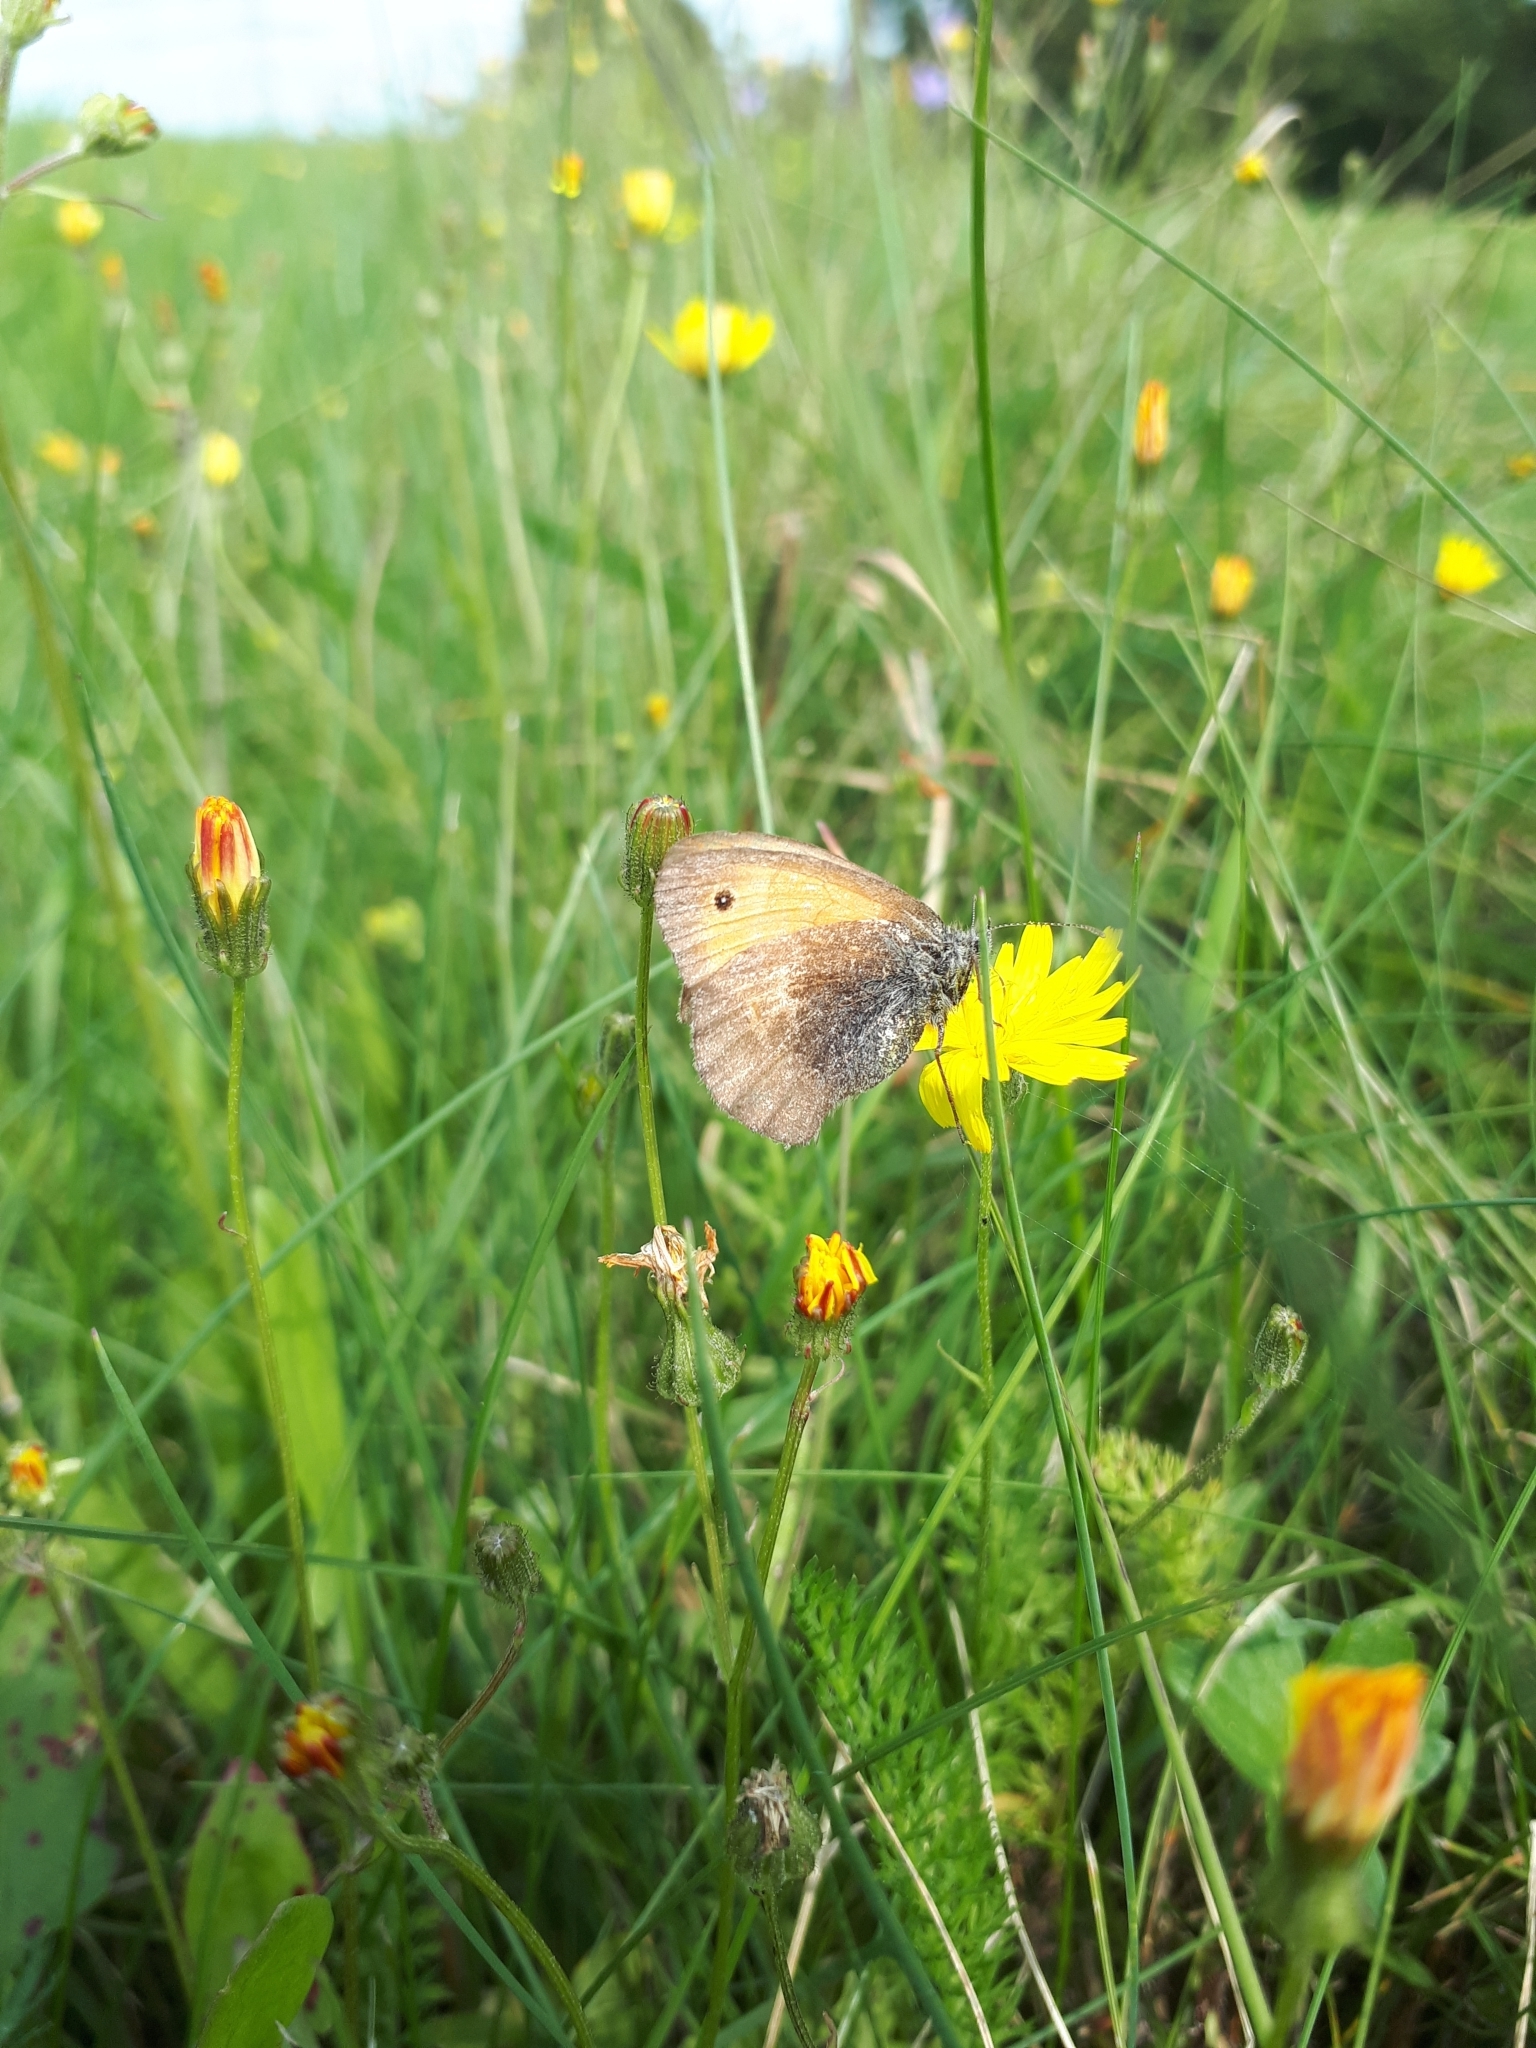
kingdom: Animalia
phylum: Arthropoda
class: Insecta
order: Lepidoptera
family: Nymphalidae
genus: Coenonympha
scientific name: Coenonympha pamphilus
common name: Small heath
